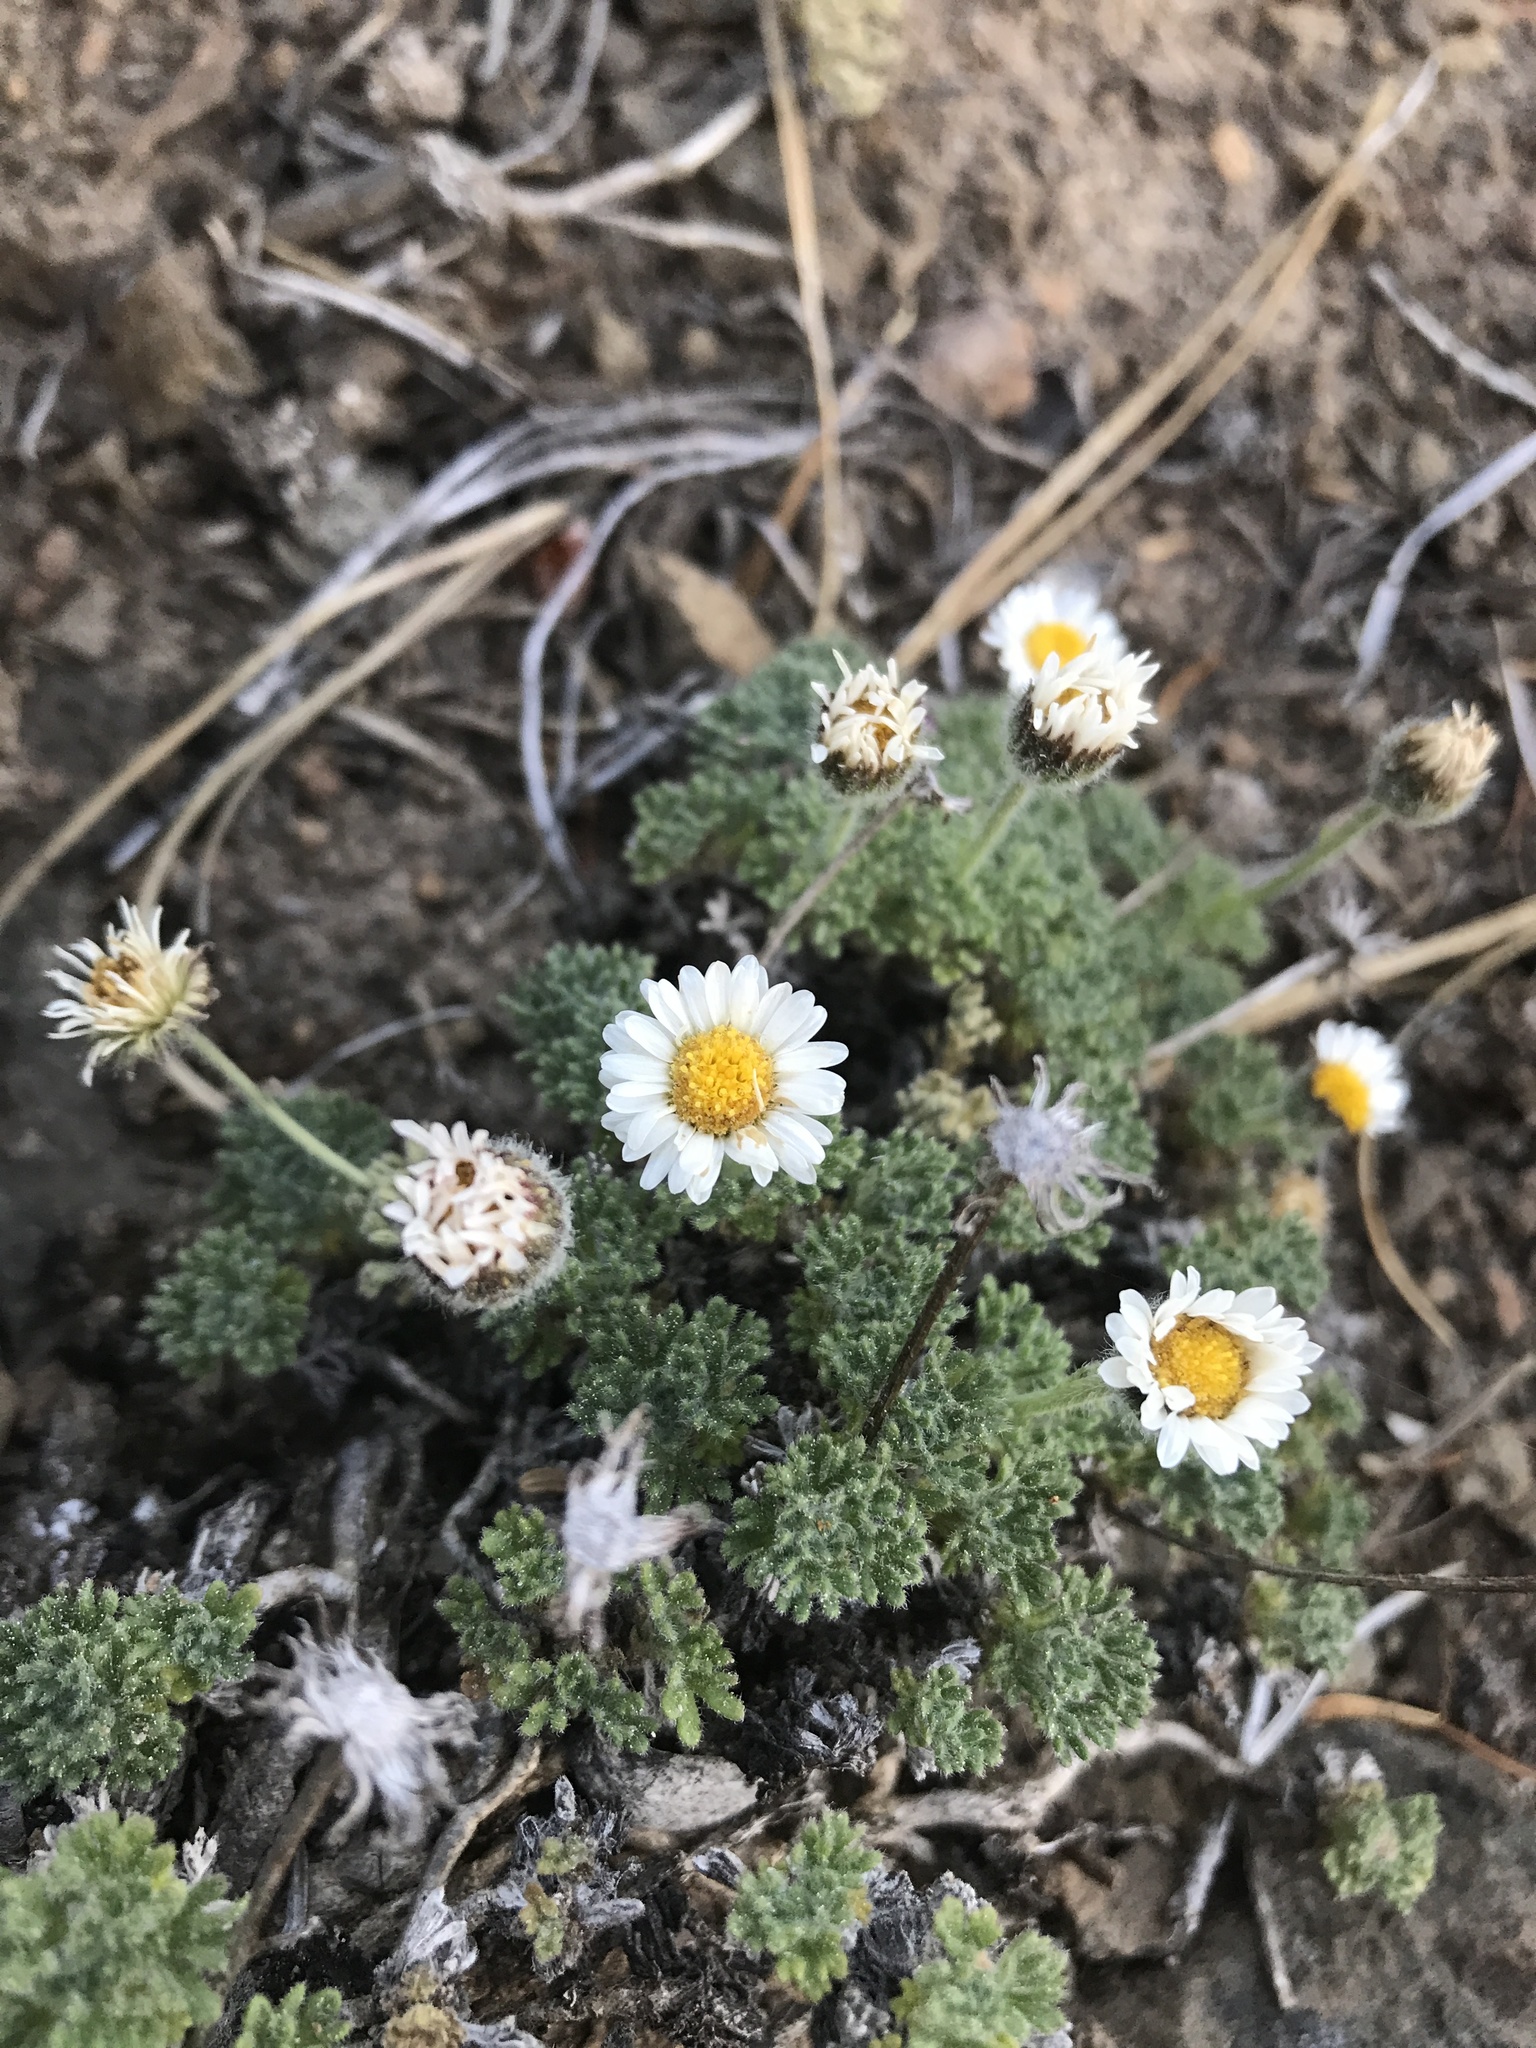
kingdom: Plantae
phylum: Tracheophyta
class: Magnoliopsida
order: Asterales
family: Asteraceae
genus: Erigeron
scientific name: Erigeron compositus
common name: Dwarf mountain fleabane
